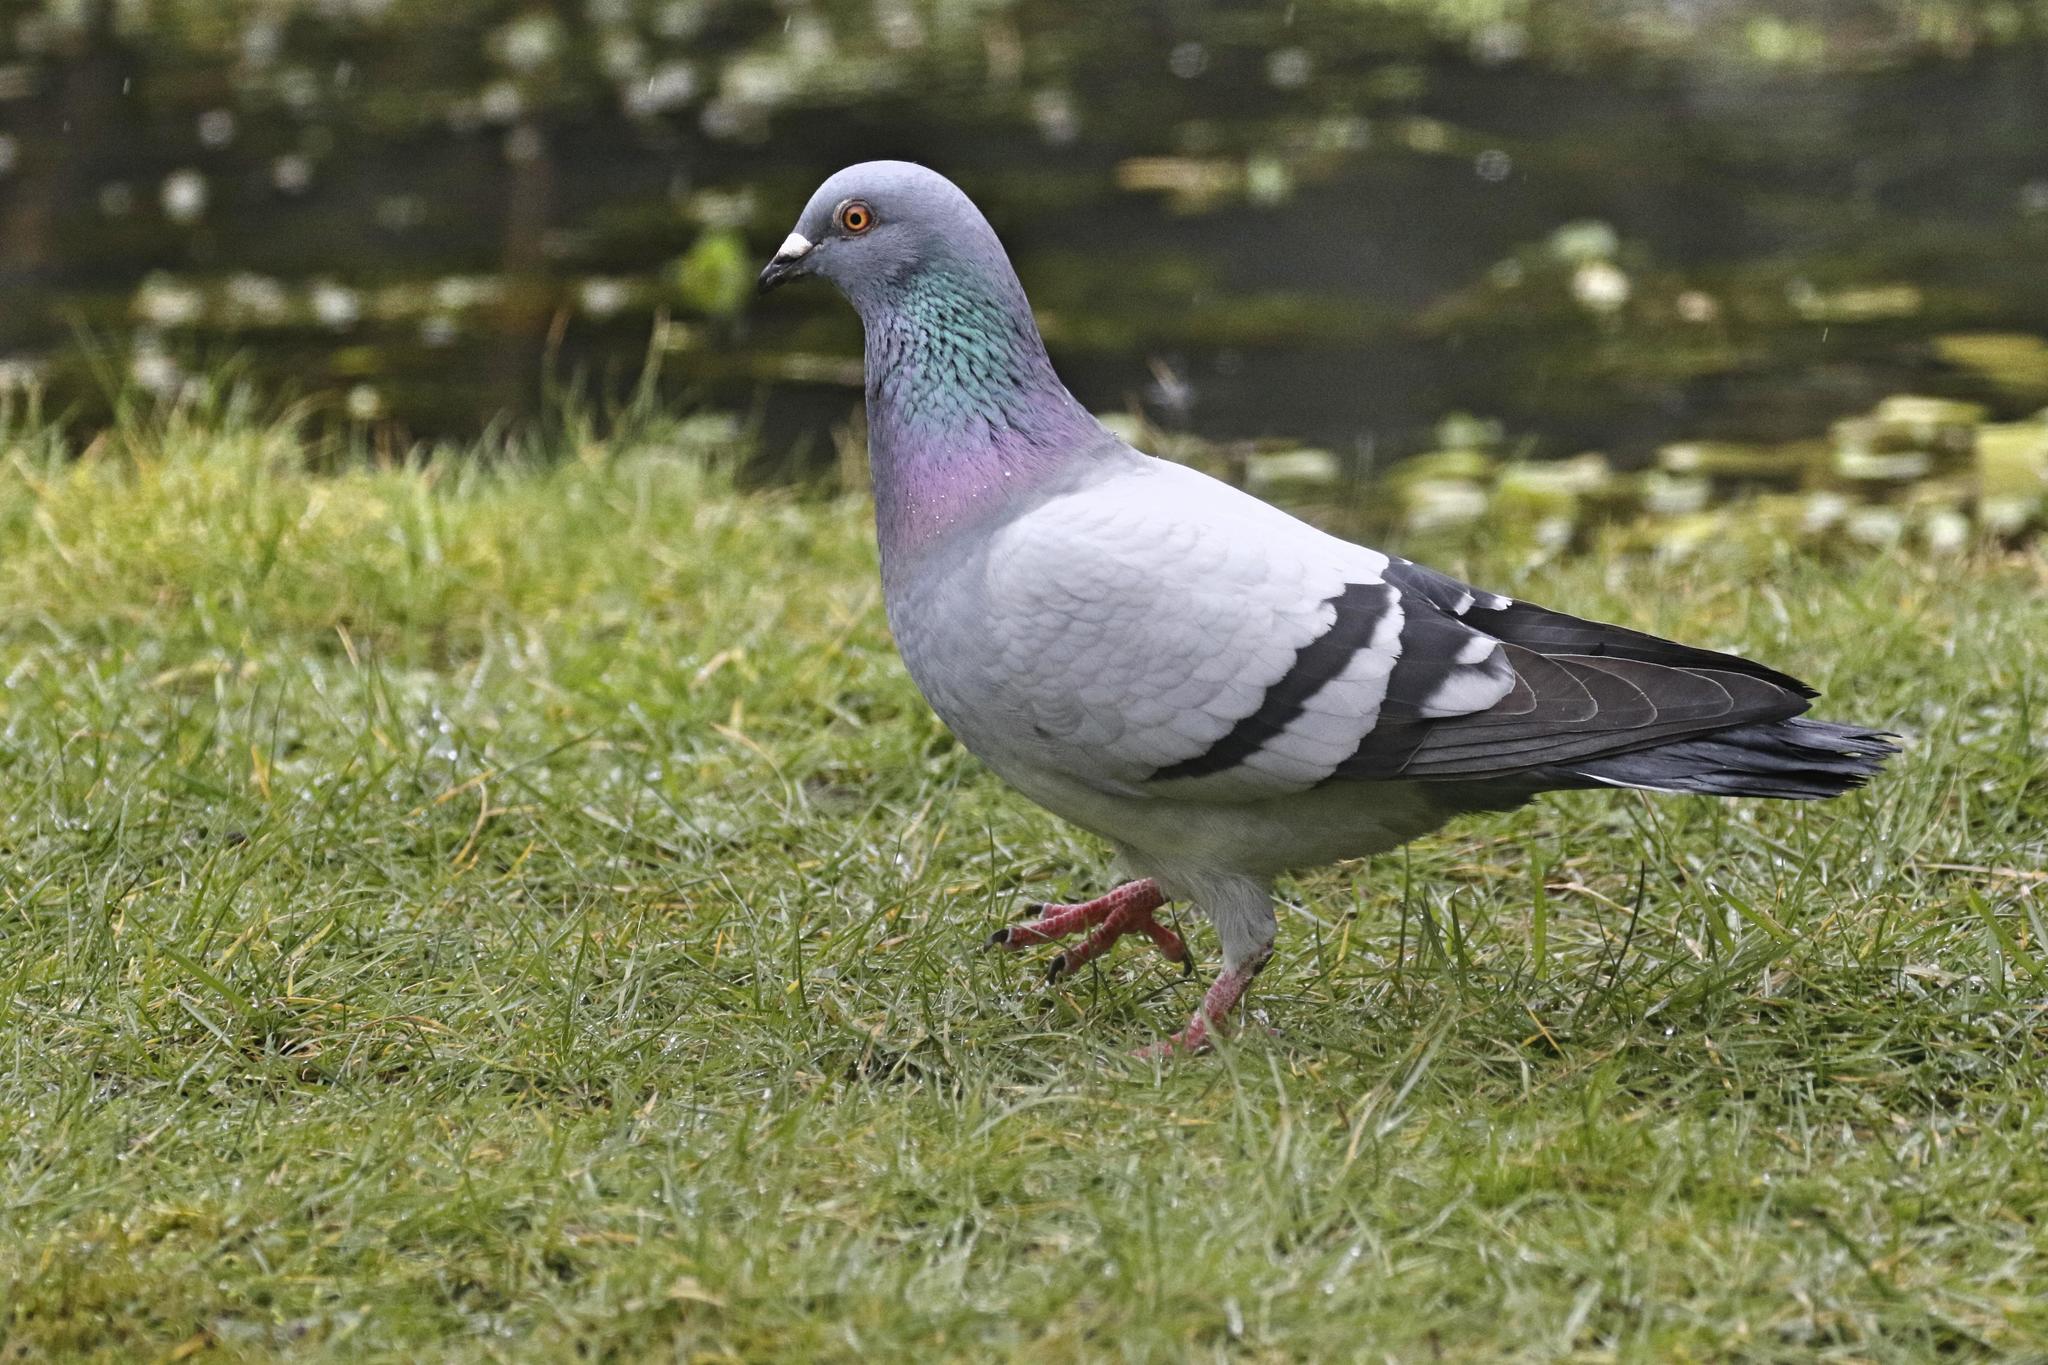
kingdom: Animalia
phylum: Chordata
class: Aves
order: Columbiformes
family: Columbidae
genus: Columba
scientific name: Columba livia
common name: Rock pigeon
